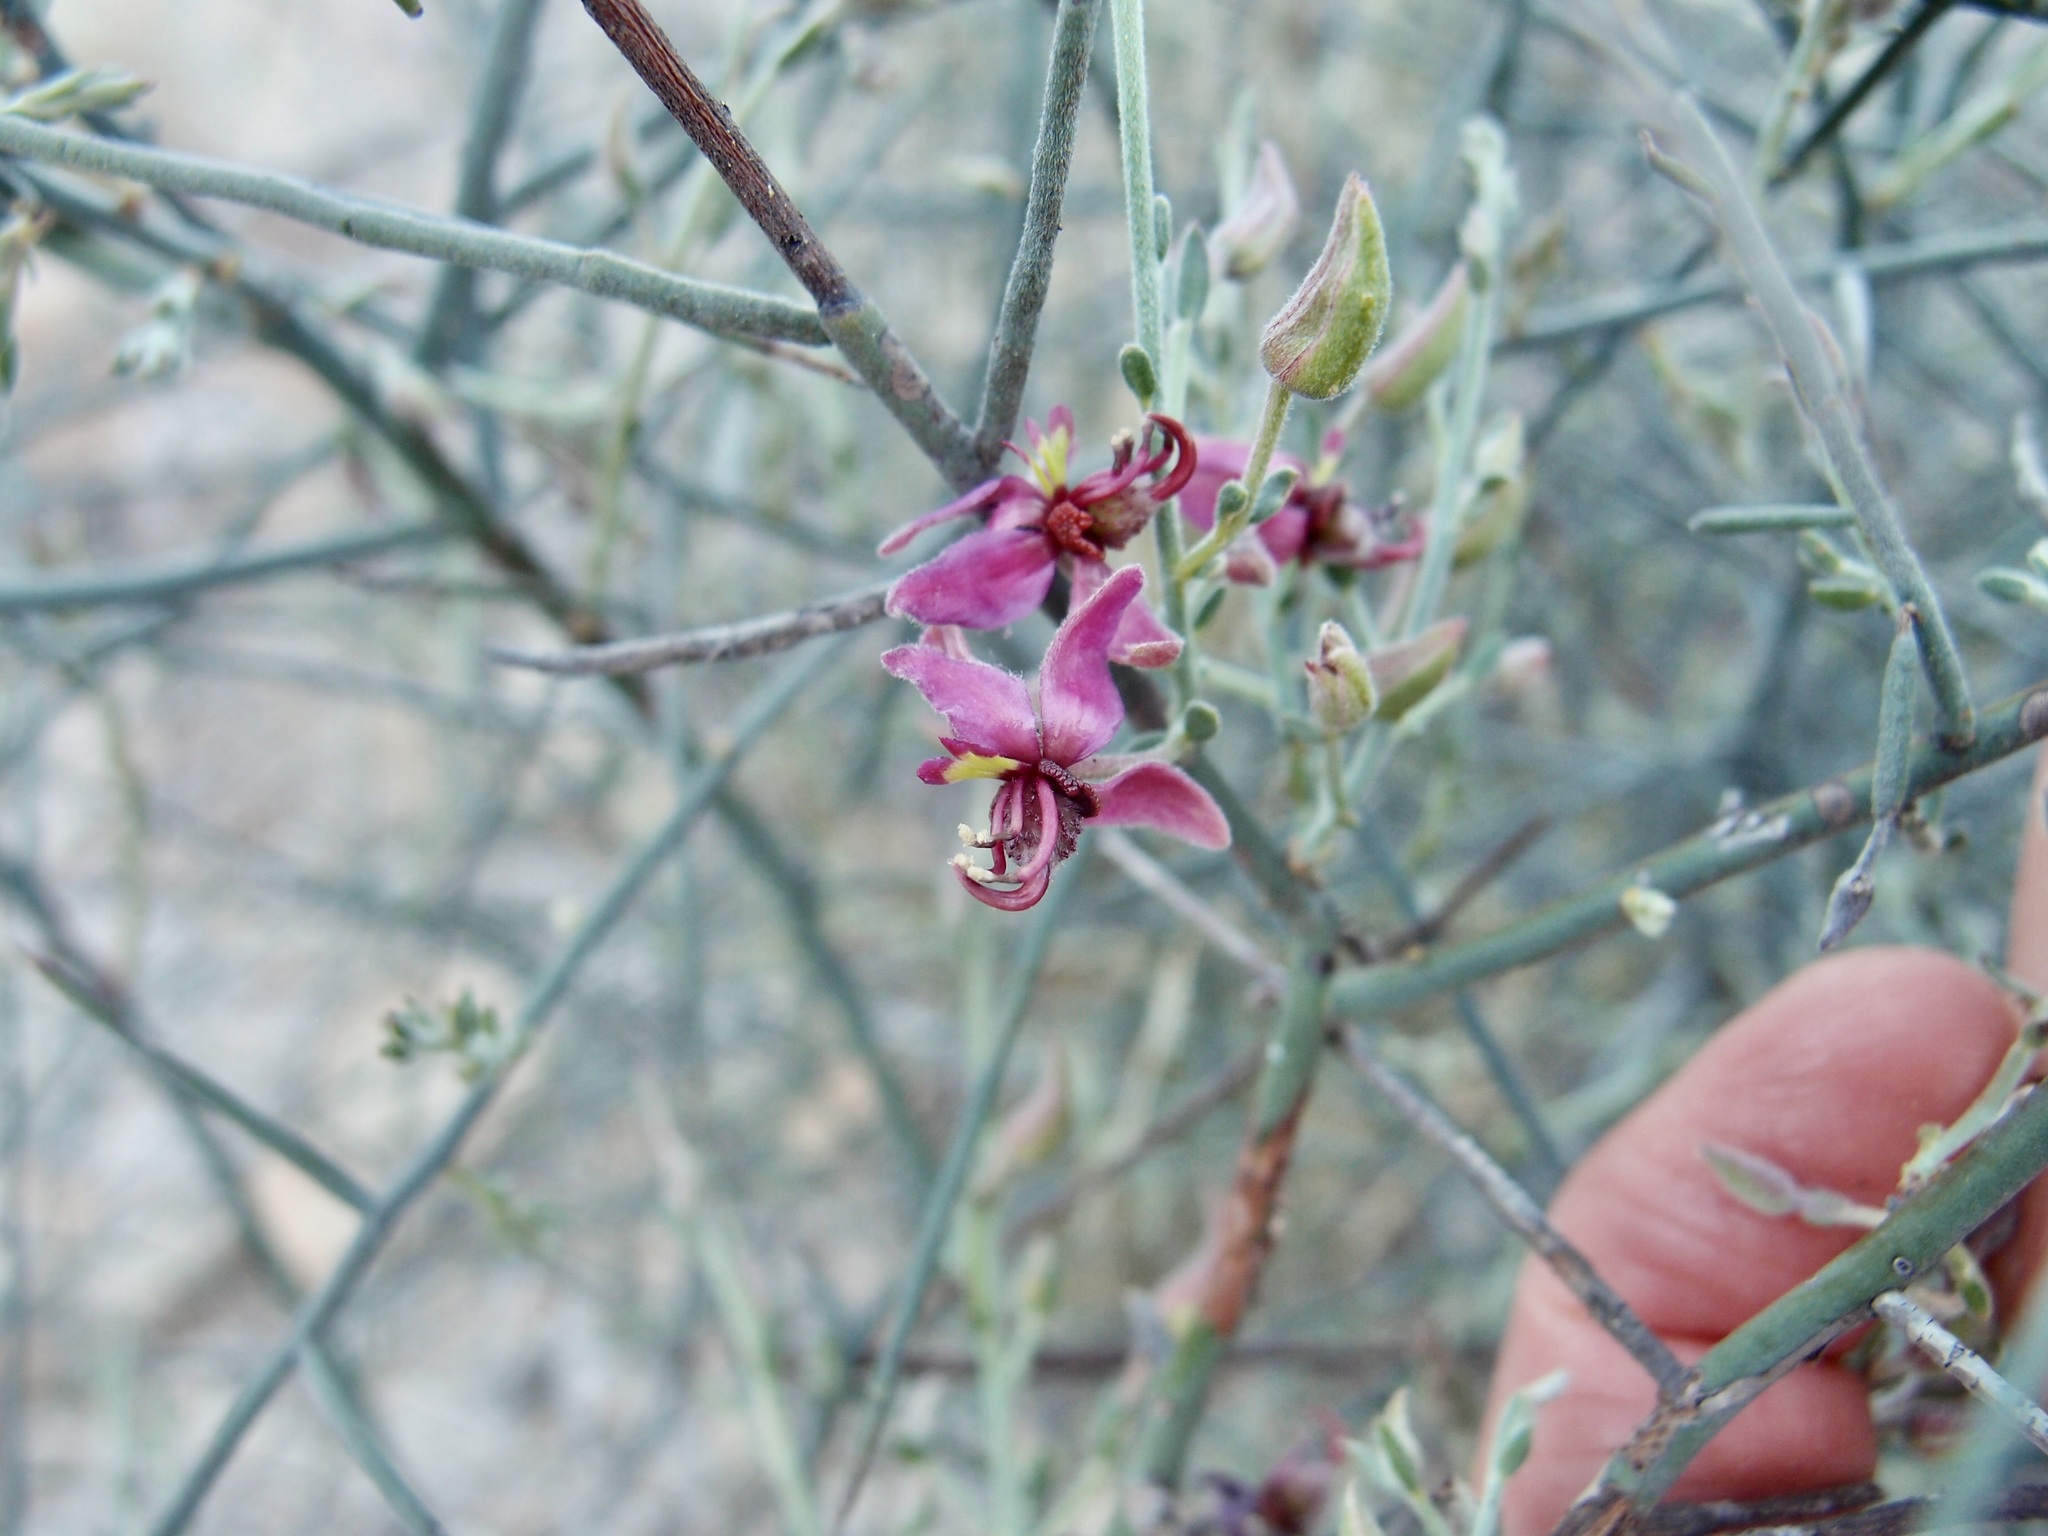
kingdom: Plantae
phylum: Tracheophyta
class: Magnoliopsida
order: Zygophyllales
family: Krameriaceae
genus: Krameria
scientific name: Krameria bicolor
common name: White ratany
